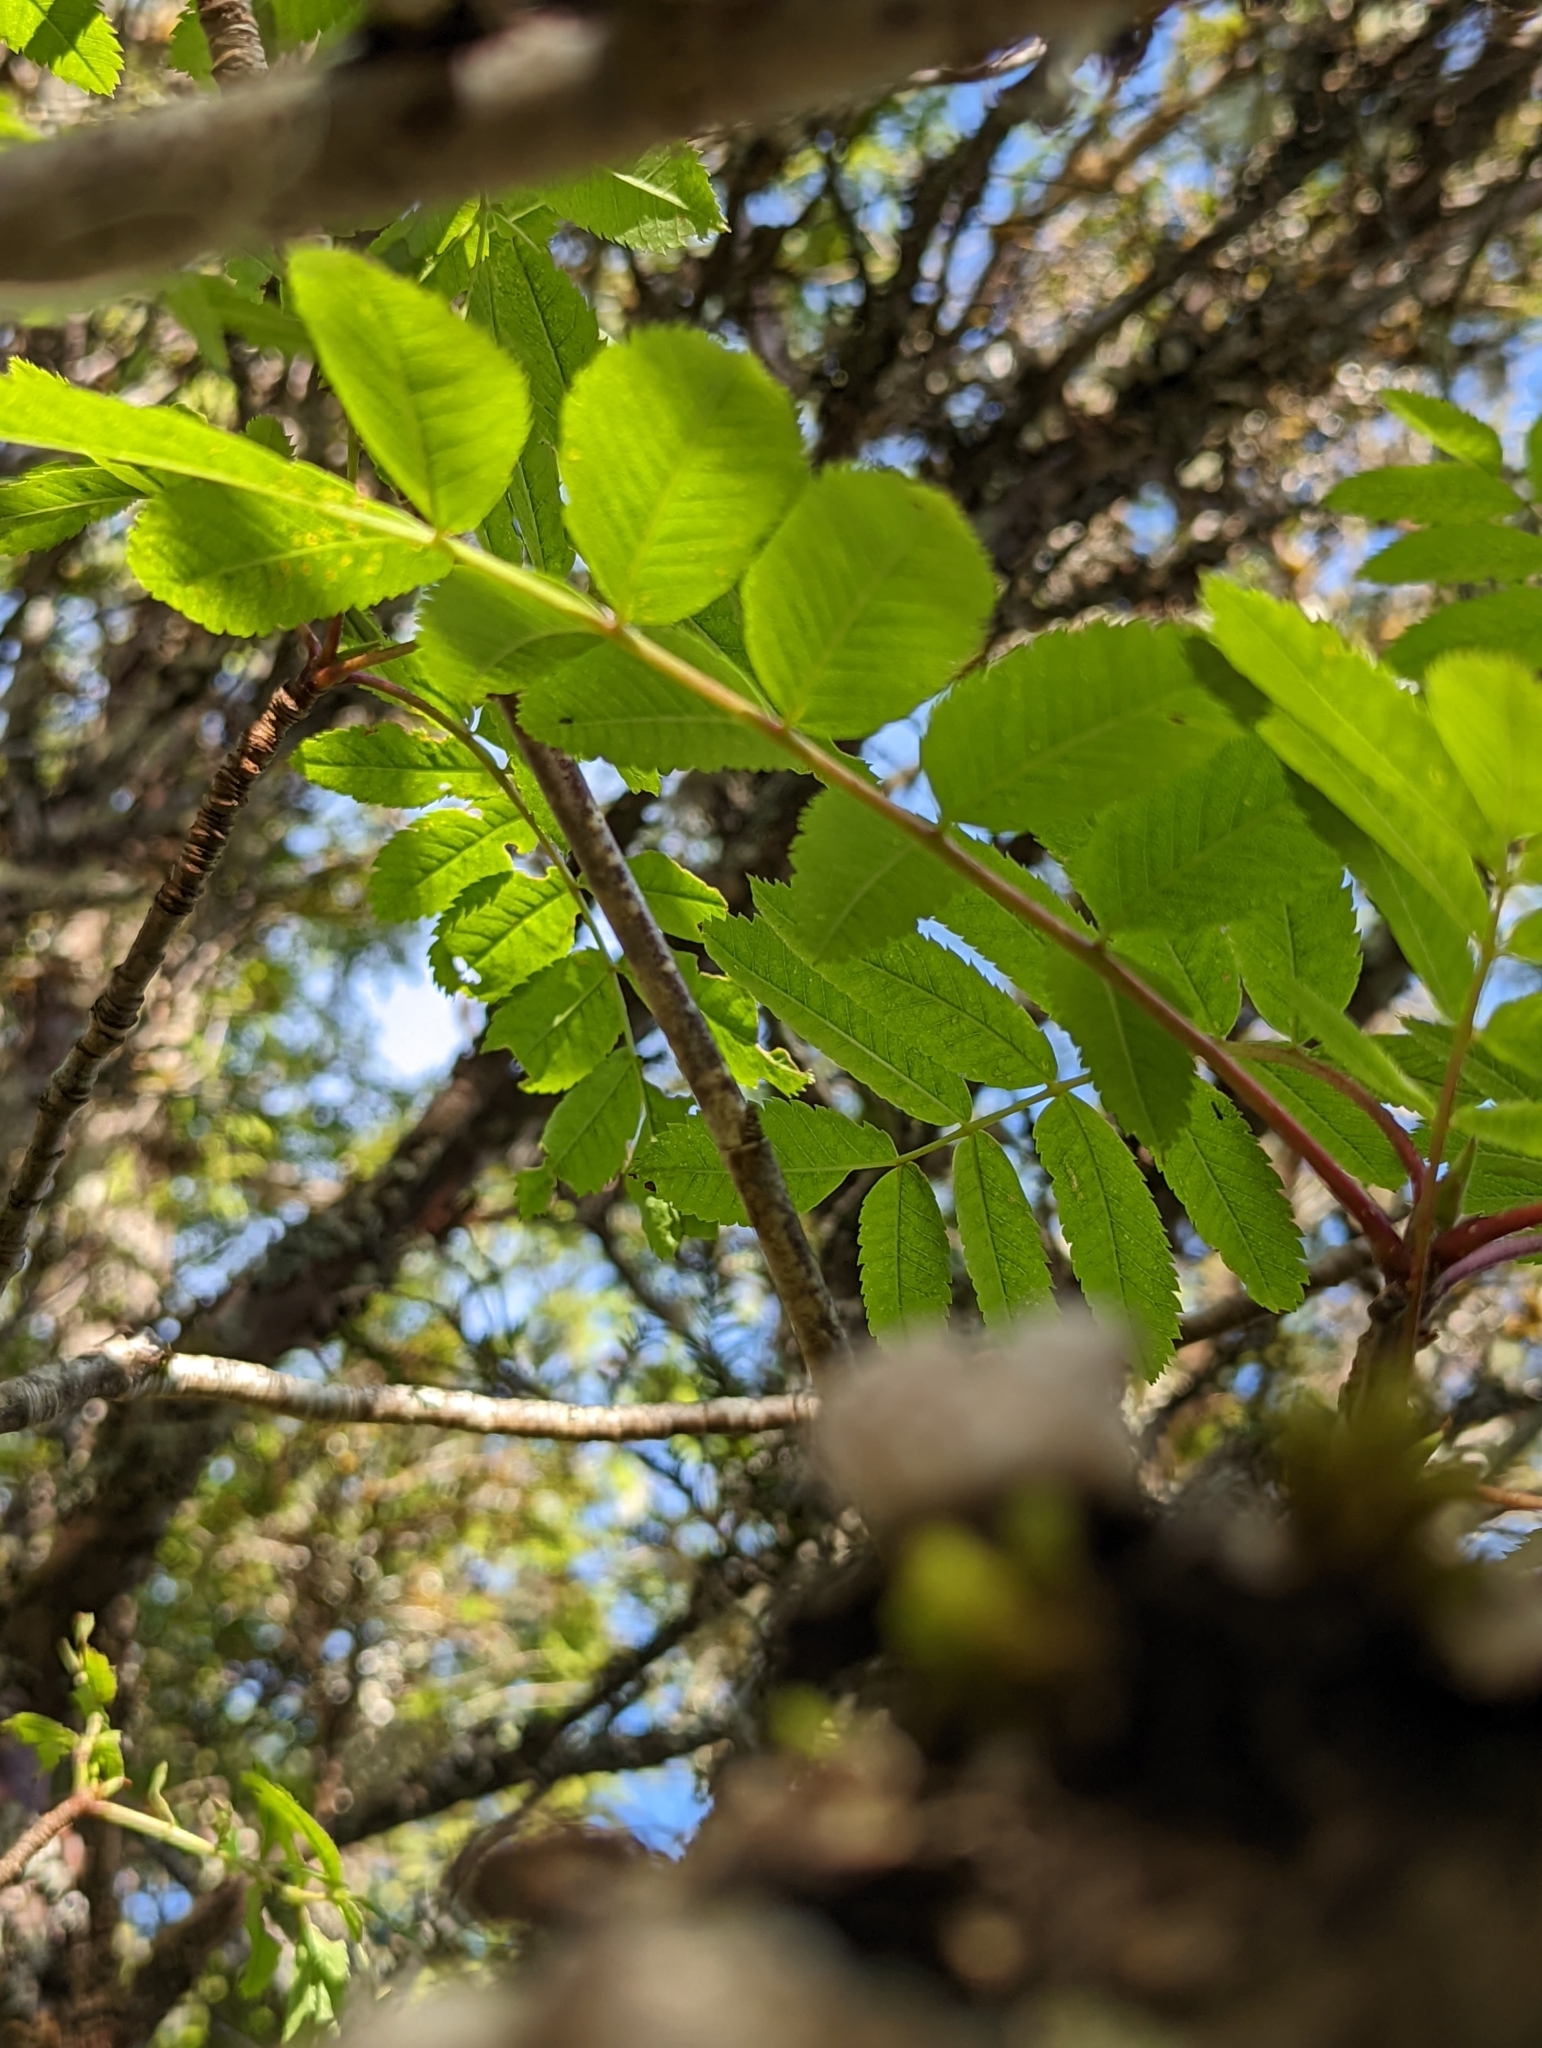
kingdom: Plantae
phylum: Tracheophyta
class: Magnoliopsida
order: Rosales
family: Rosaceae
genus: Sorbus
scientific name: Sorbus scopulina
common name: Greene's mountain-ash
